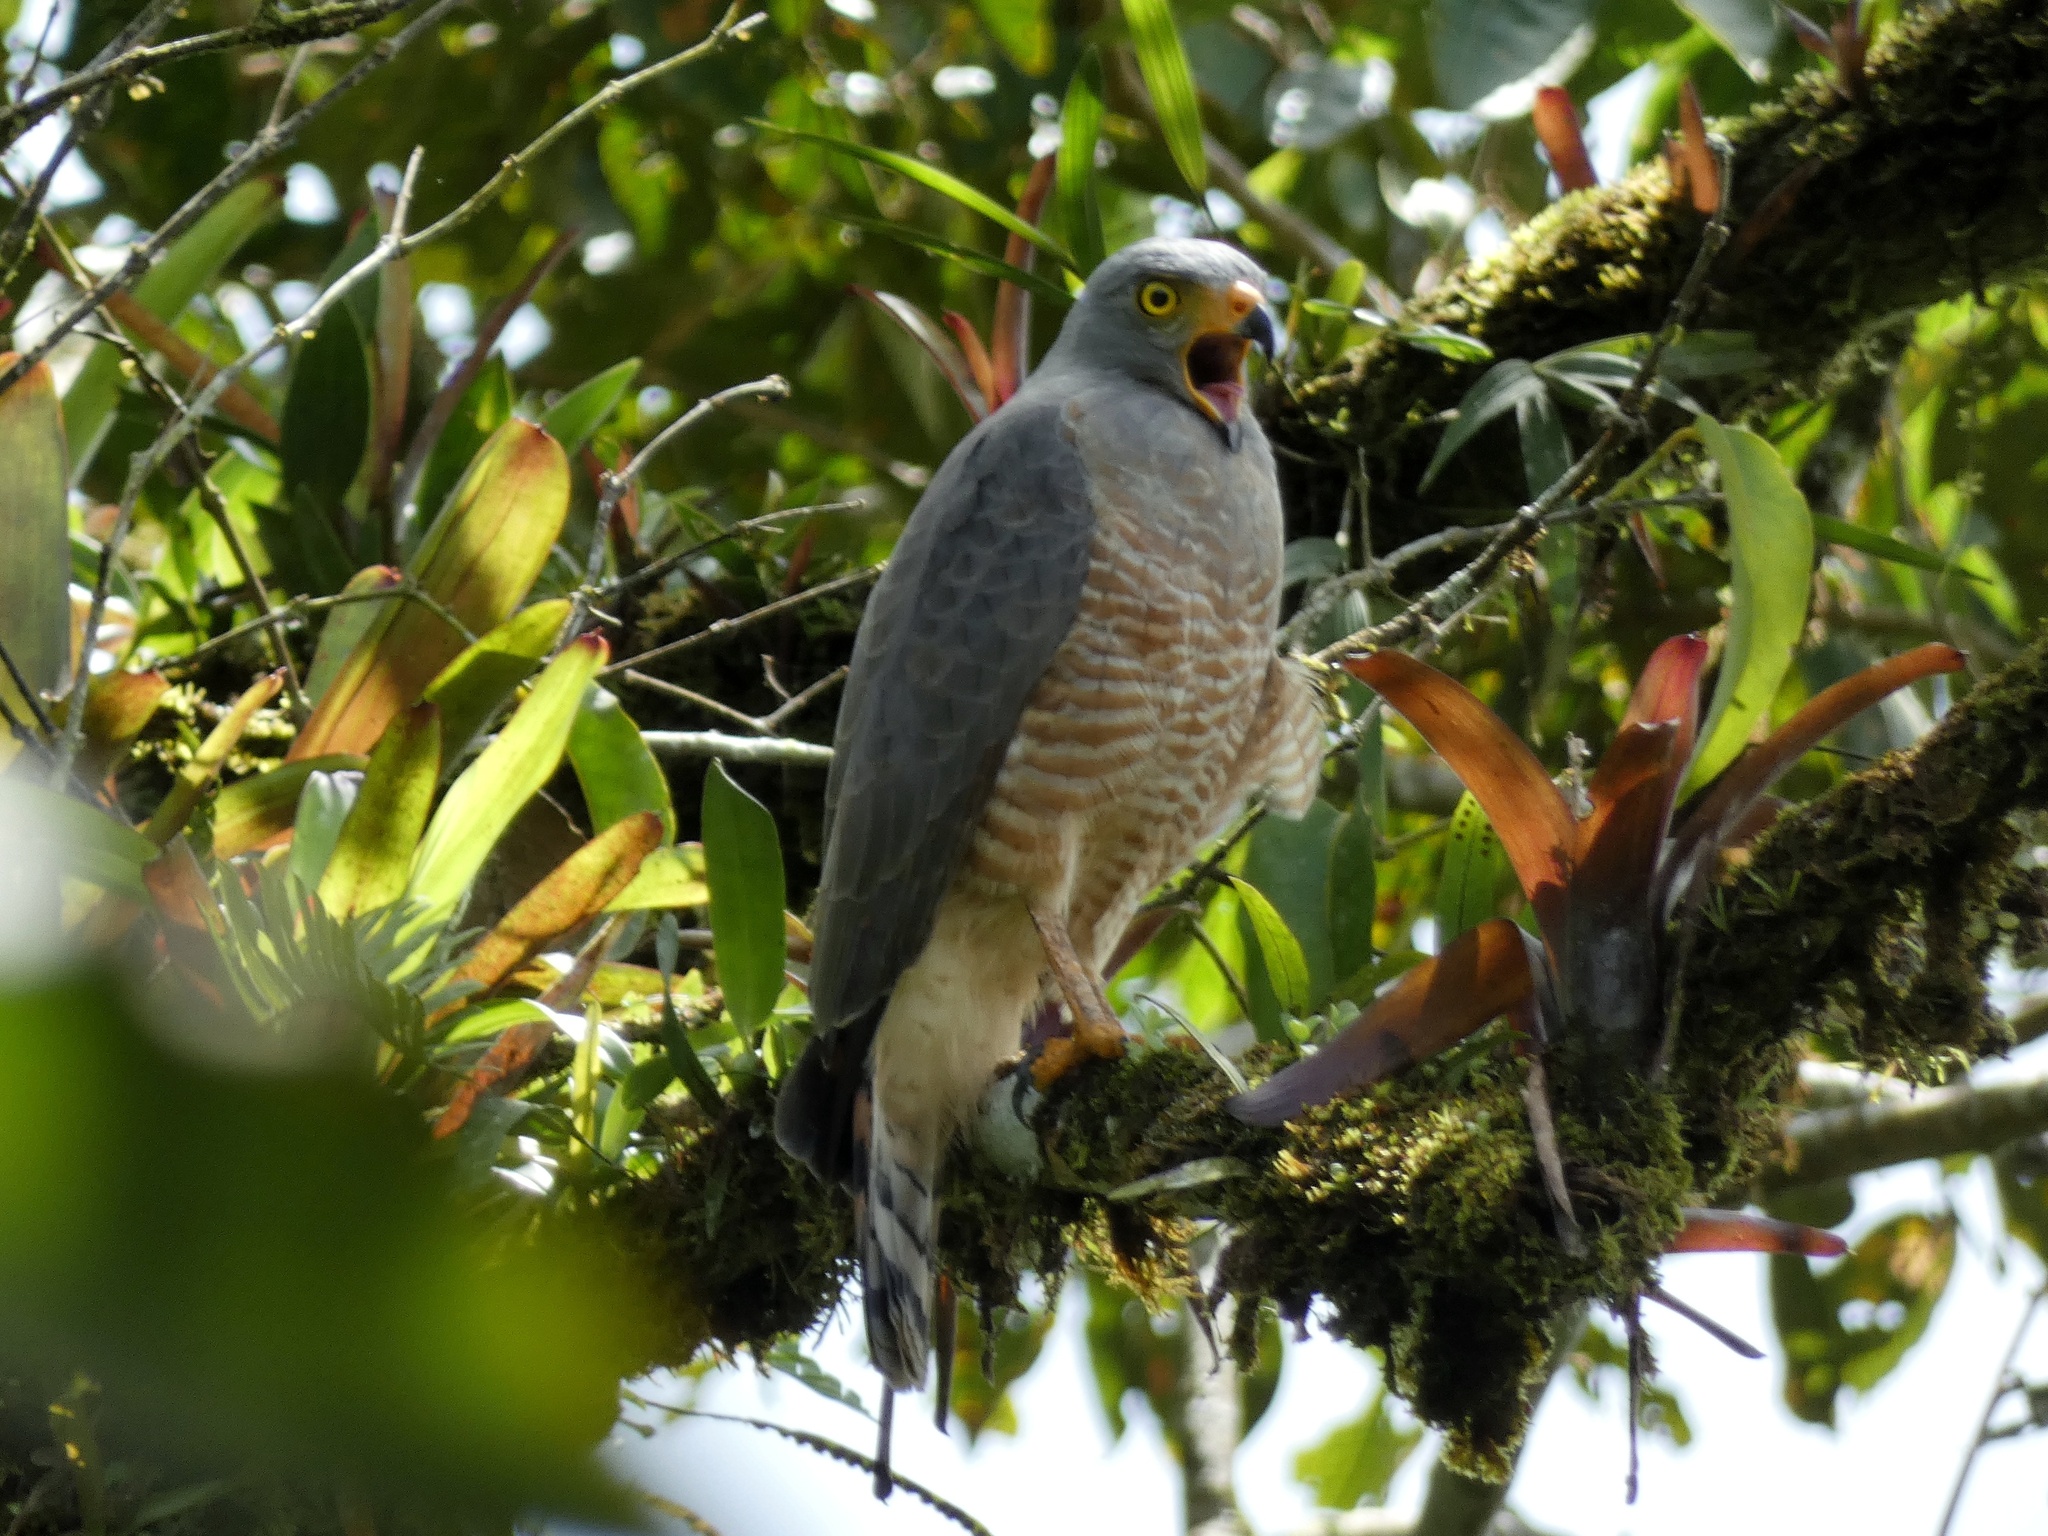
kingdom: Animalia
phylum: Chordata
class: Aves
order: Accipitriformes
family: Accipitridae
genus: Rupornis
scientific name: Rupornis magnirostris
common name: Roadside hawk
